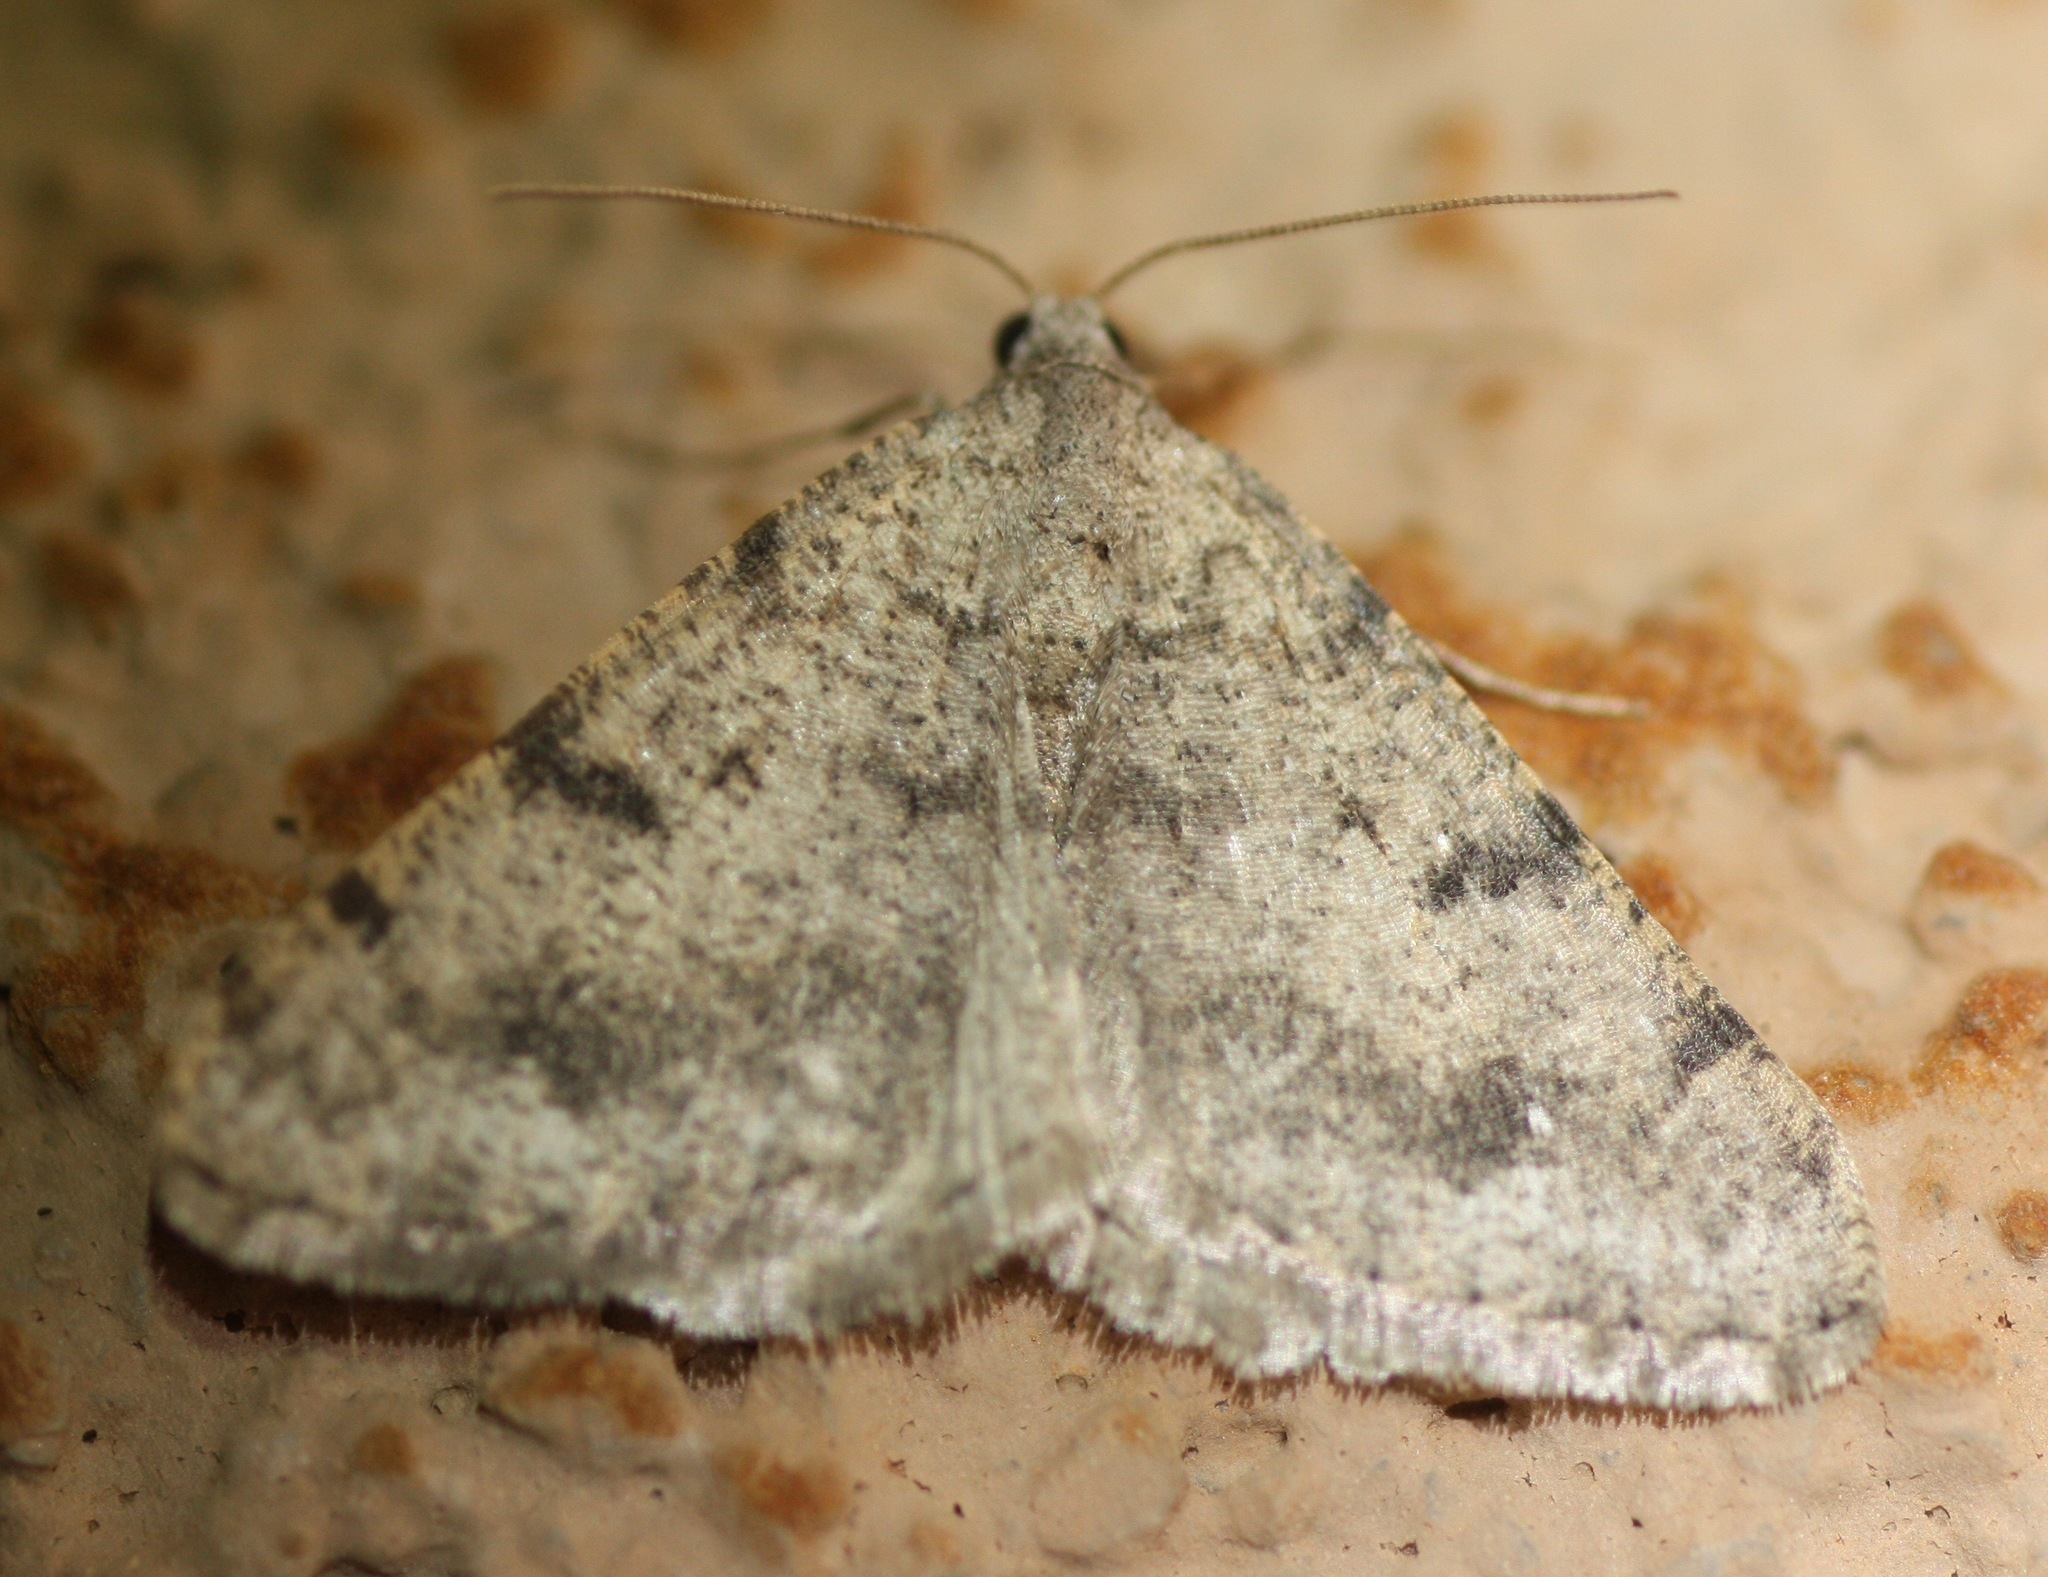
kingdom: Animalia
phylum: Arthropoda
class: Insecta
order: Lepidoptera
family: Geometridae
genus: Digrammia
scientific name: Digrammia colorata
